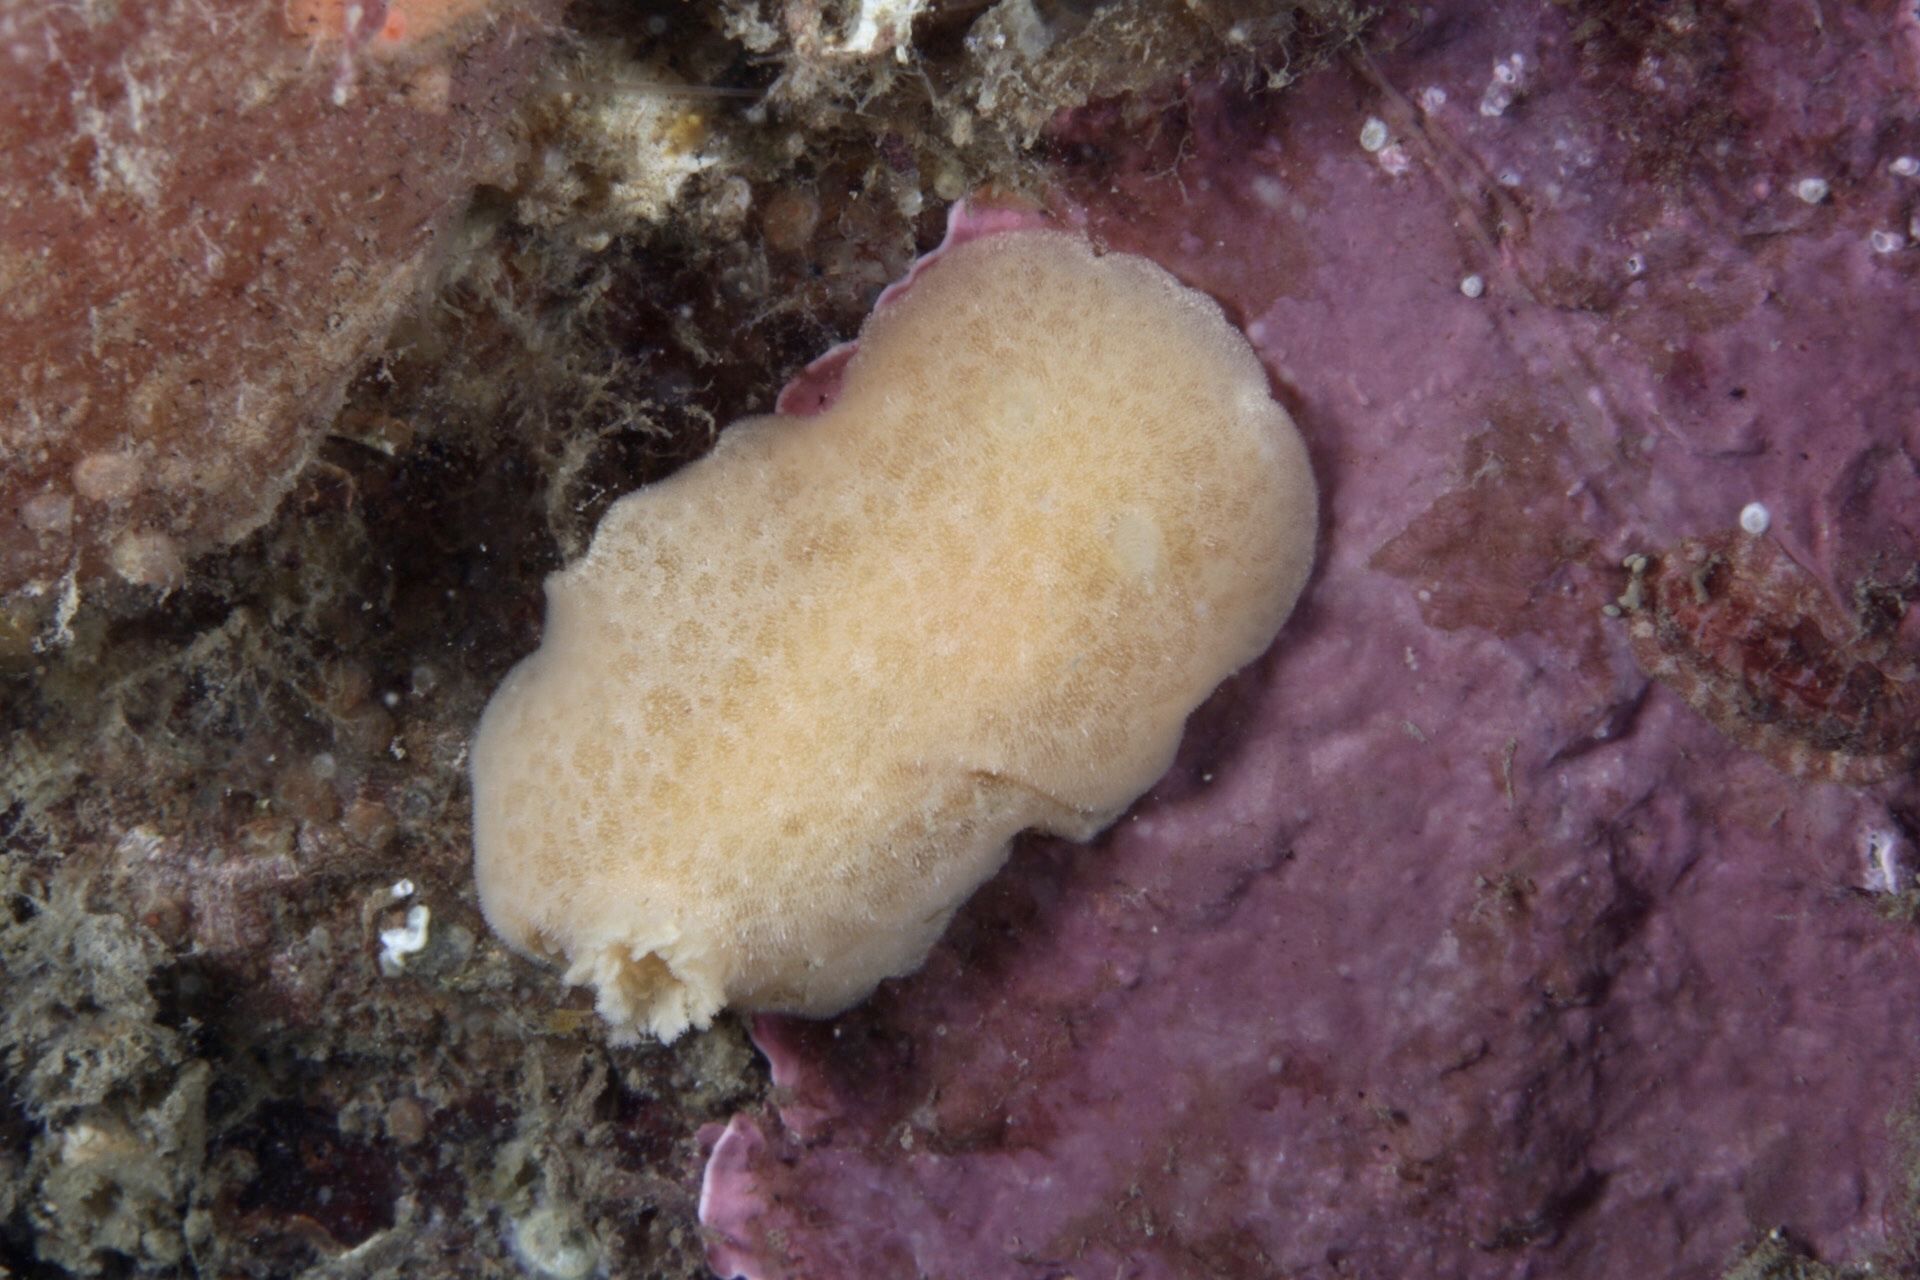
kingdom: Animalia
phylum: Mollusca
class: Gastropoda
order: Nudibranchia
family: Discodorididae
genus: Jorunna
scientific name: Jorunna tomentosa
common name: Grey sea slug
